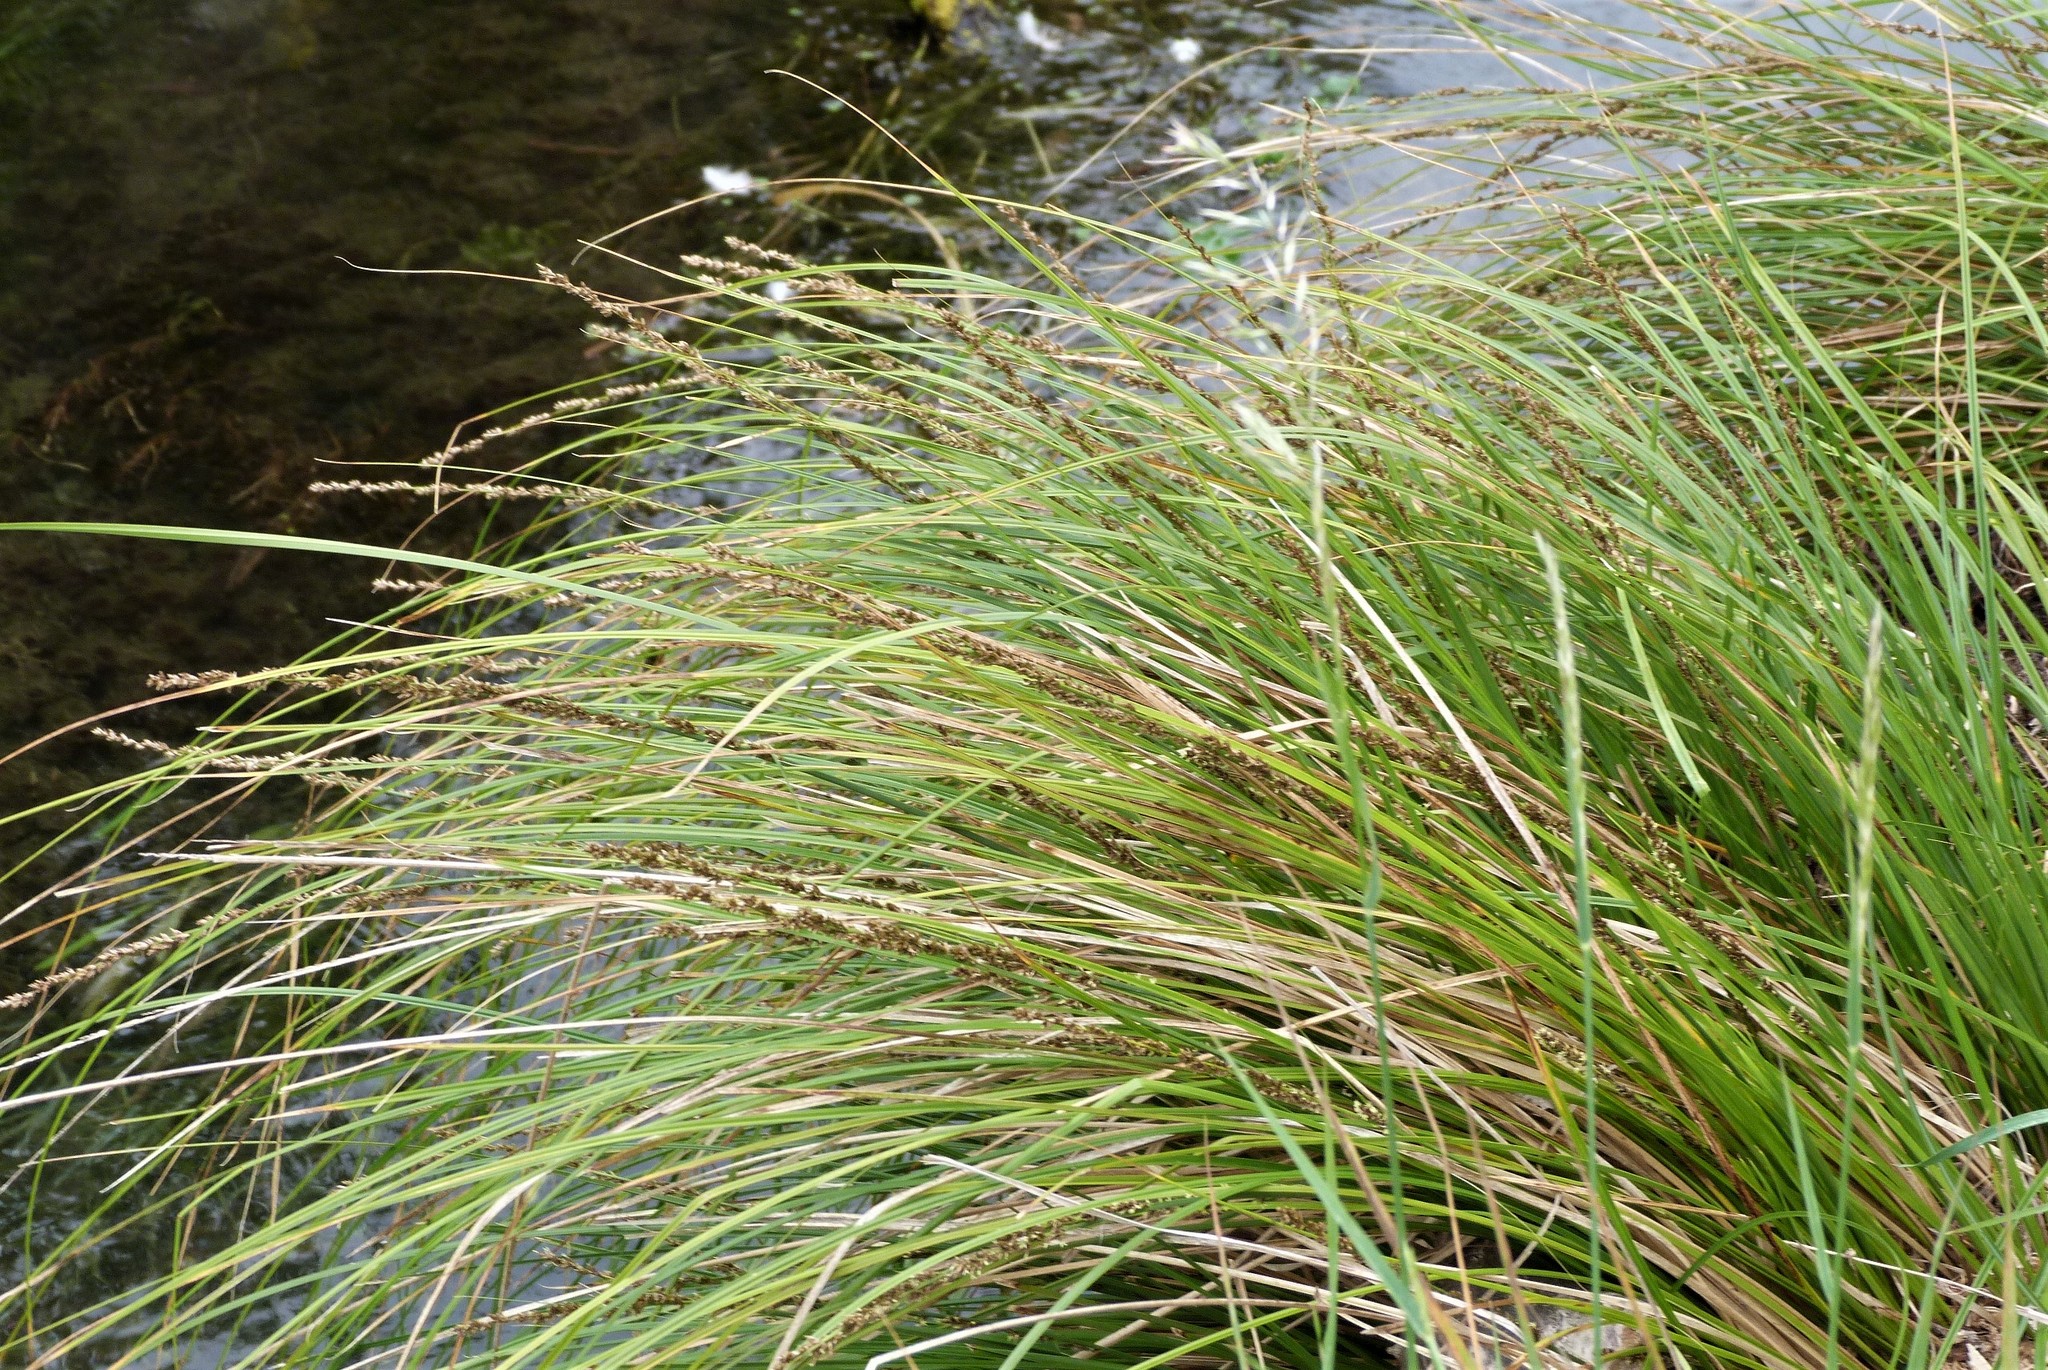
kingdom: Plantae
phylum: Tracheophyta
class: Liliopsida
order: Poales
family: Cyperaceae
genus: Carex
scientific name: Carex virgata
